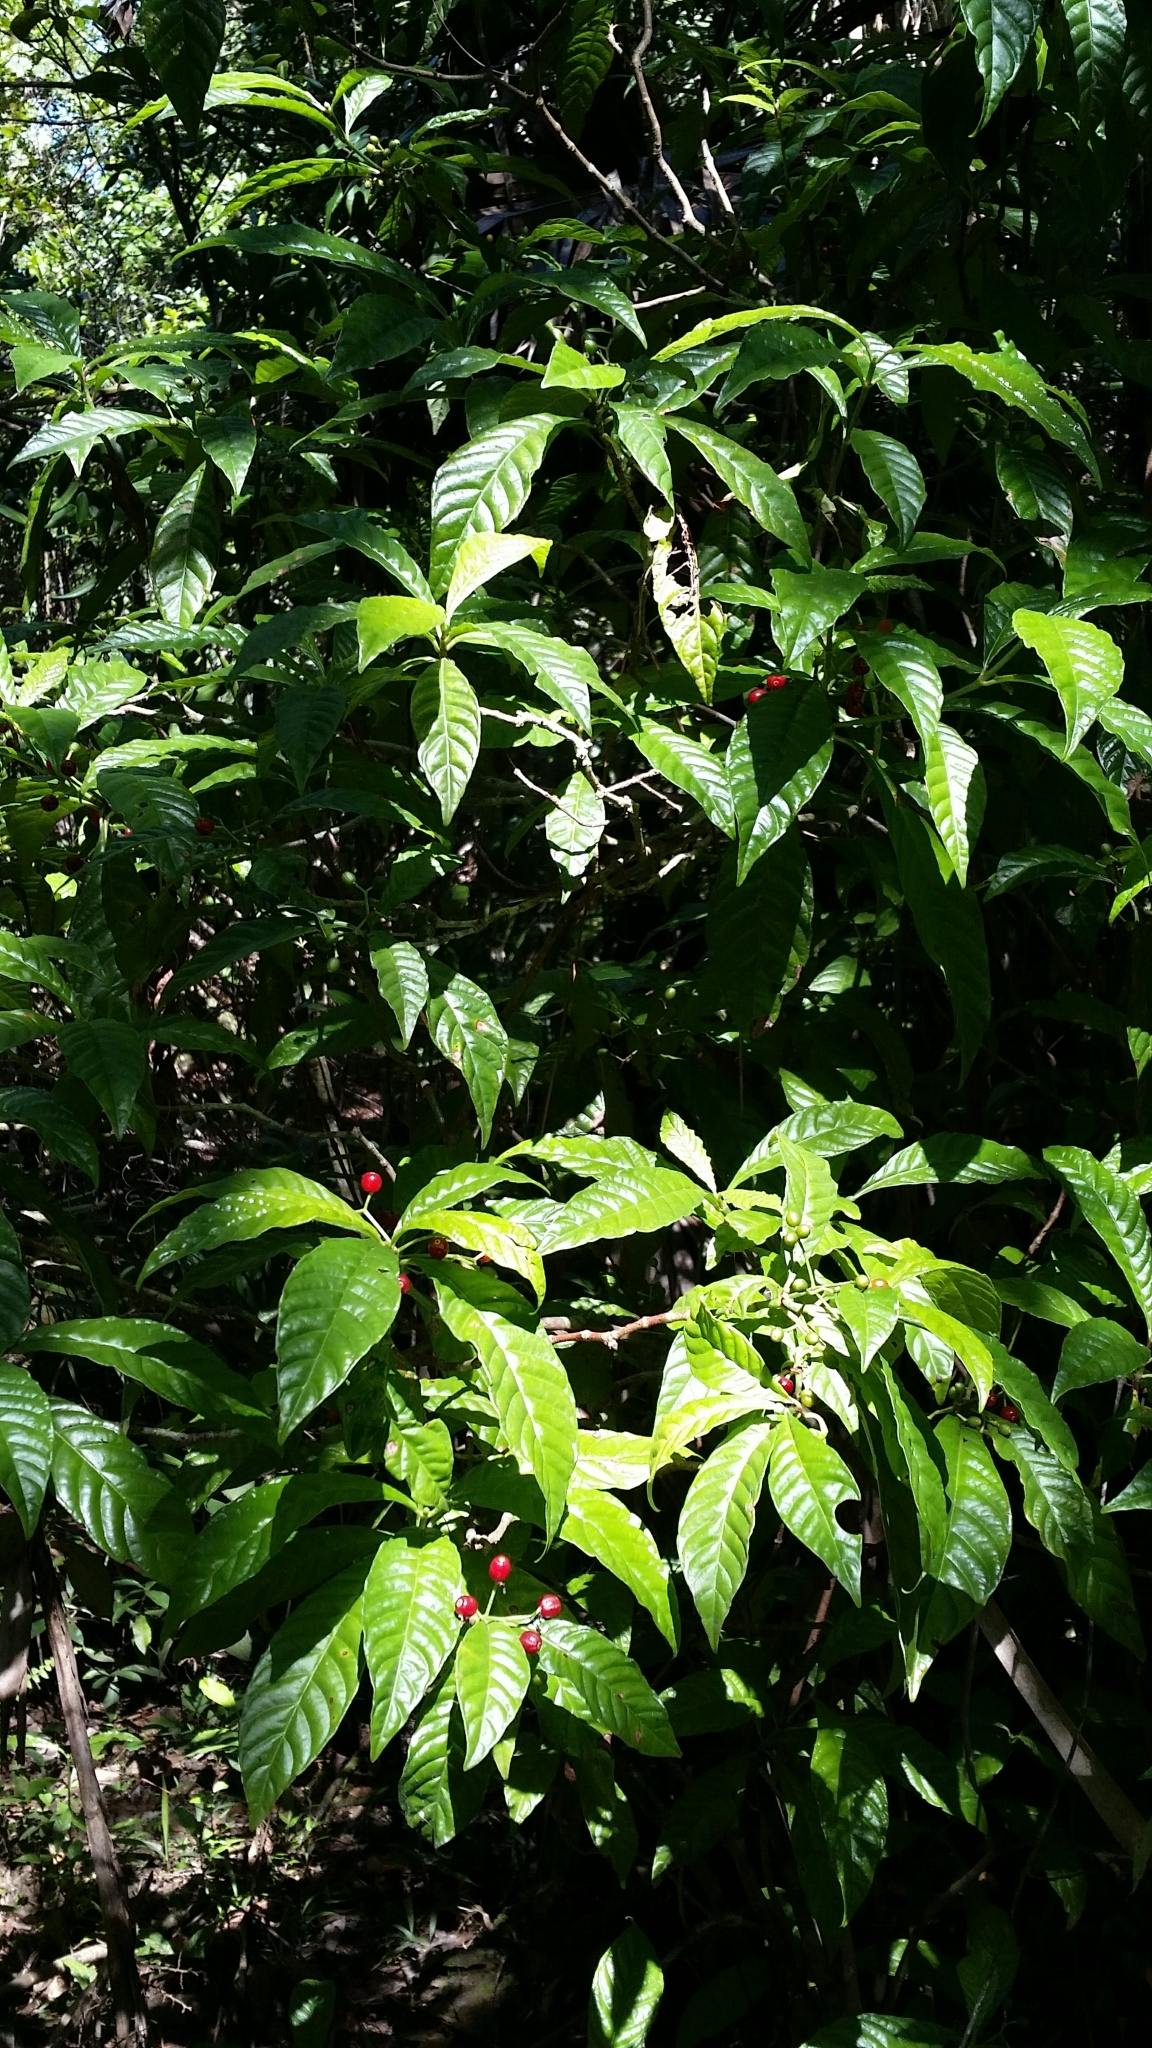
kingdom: Plantae
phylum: Tracheophyta
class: Magnoliopsida
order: Gentianales
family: Rubiaceae
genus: Psychotria
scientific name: Psychotria nervosa
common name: Bastard cankerberry
